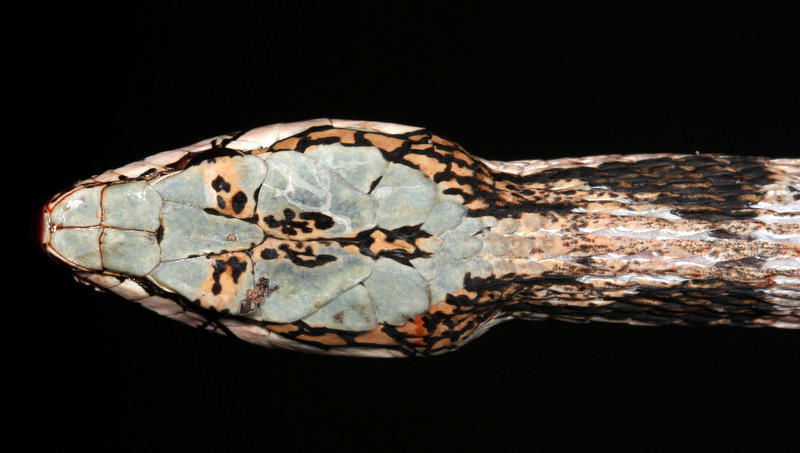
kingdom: Animalia
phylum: Chordata
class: Squamata
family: Colubridae
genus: Thelotornis
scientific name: Thelotornis capensis
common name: Savanna vine snake
